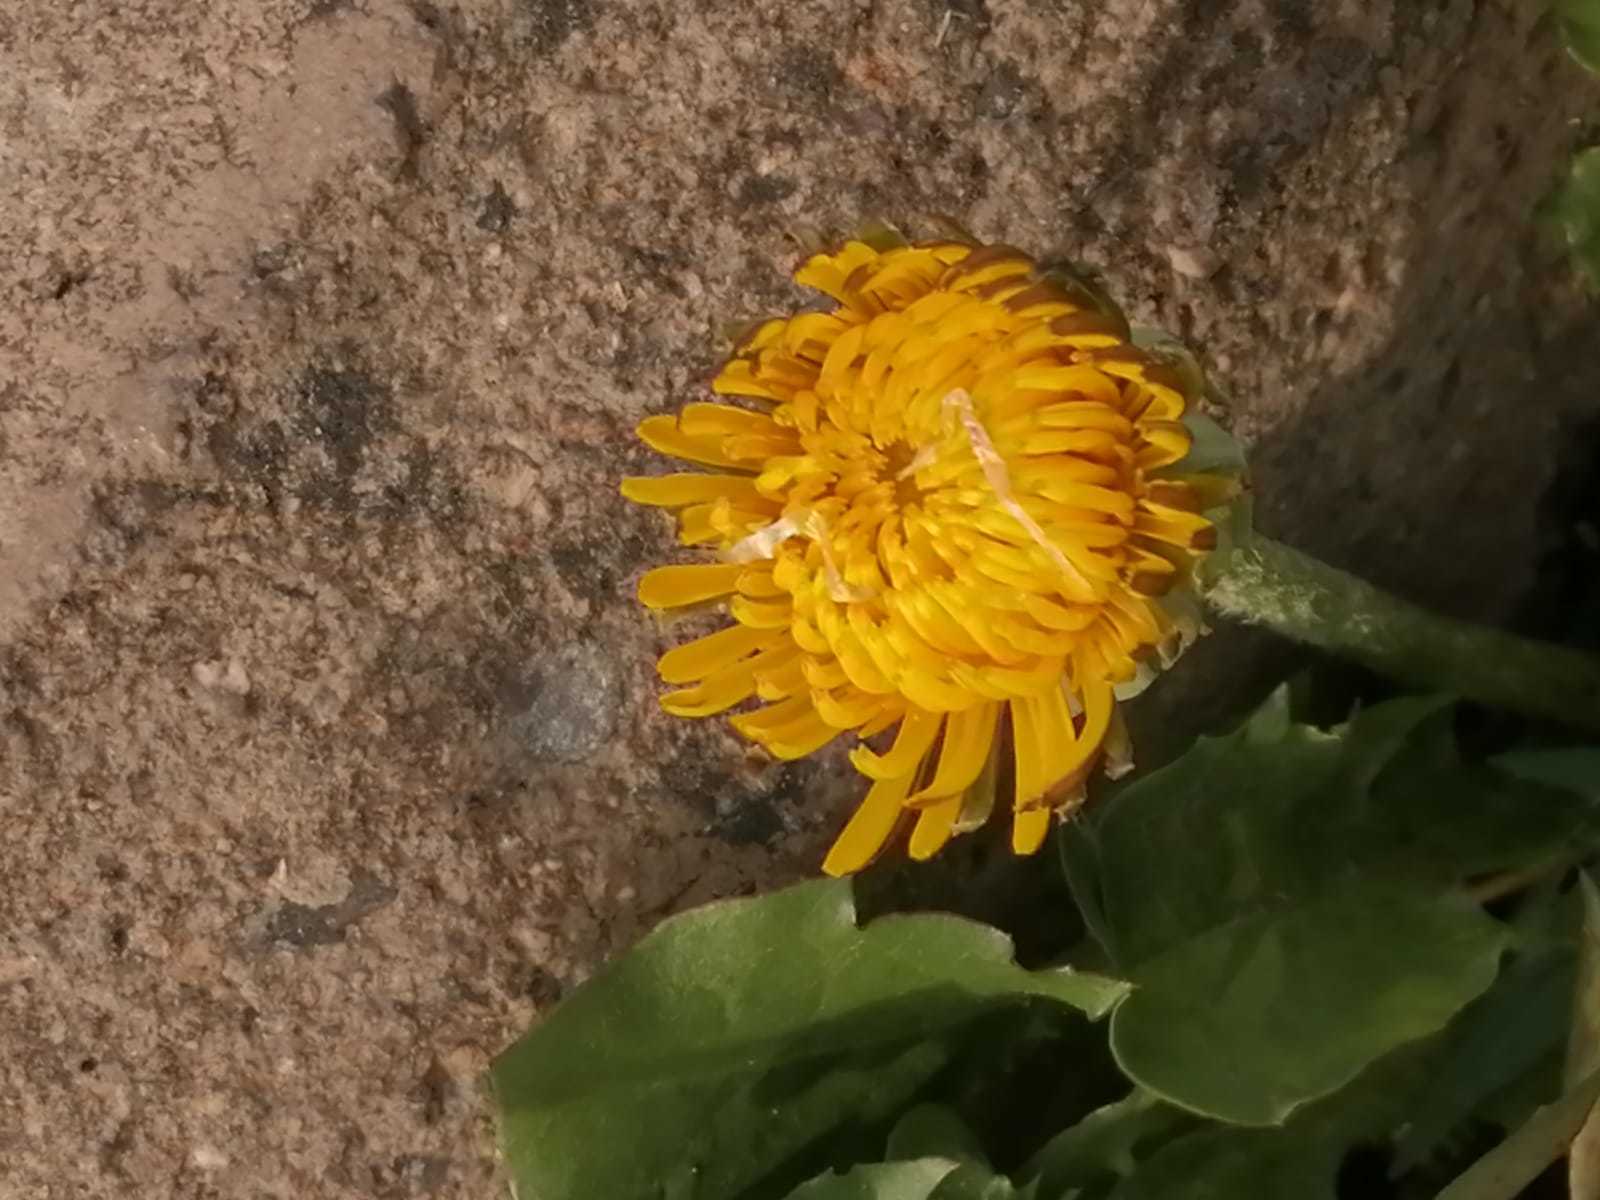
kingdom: Plantae
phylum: Tracheophyta
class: Magnoliopsida
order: Asterales
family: Asteraceae
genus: Taraxacum
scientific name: Taraxacum officinale
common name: Common dandelion
